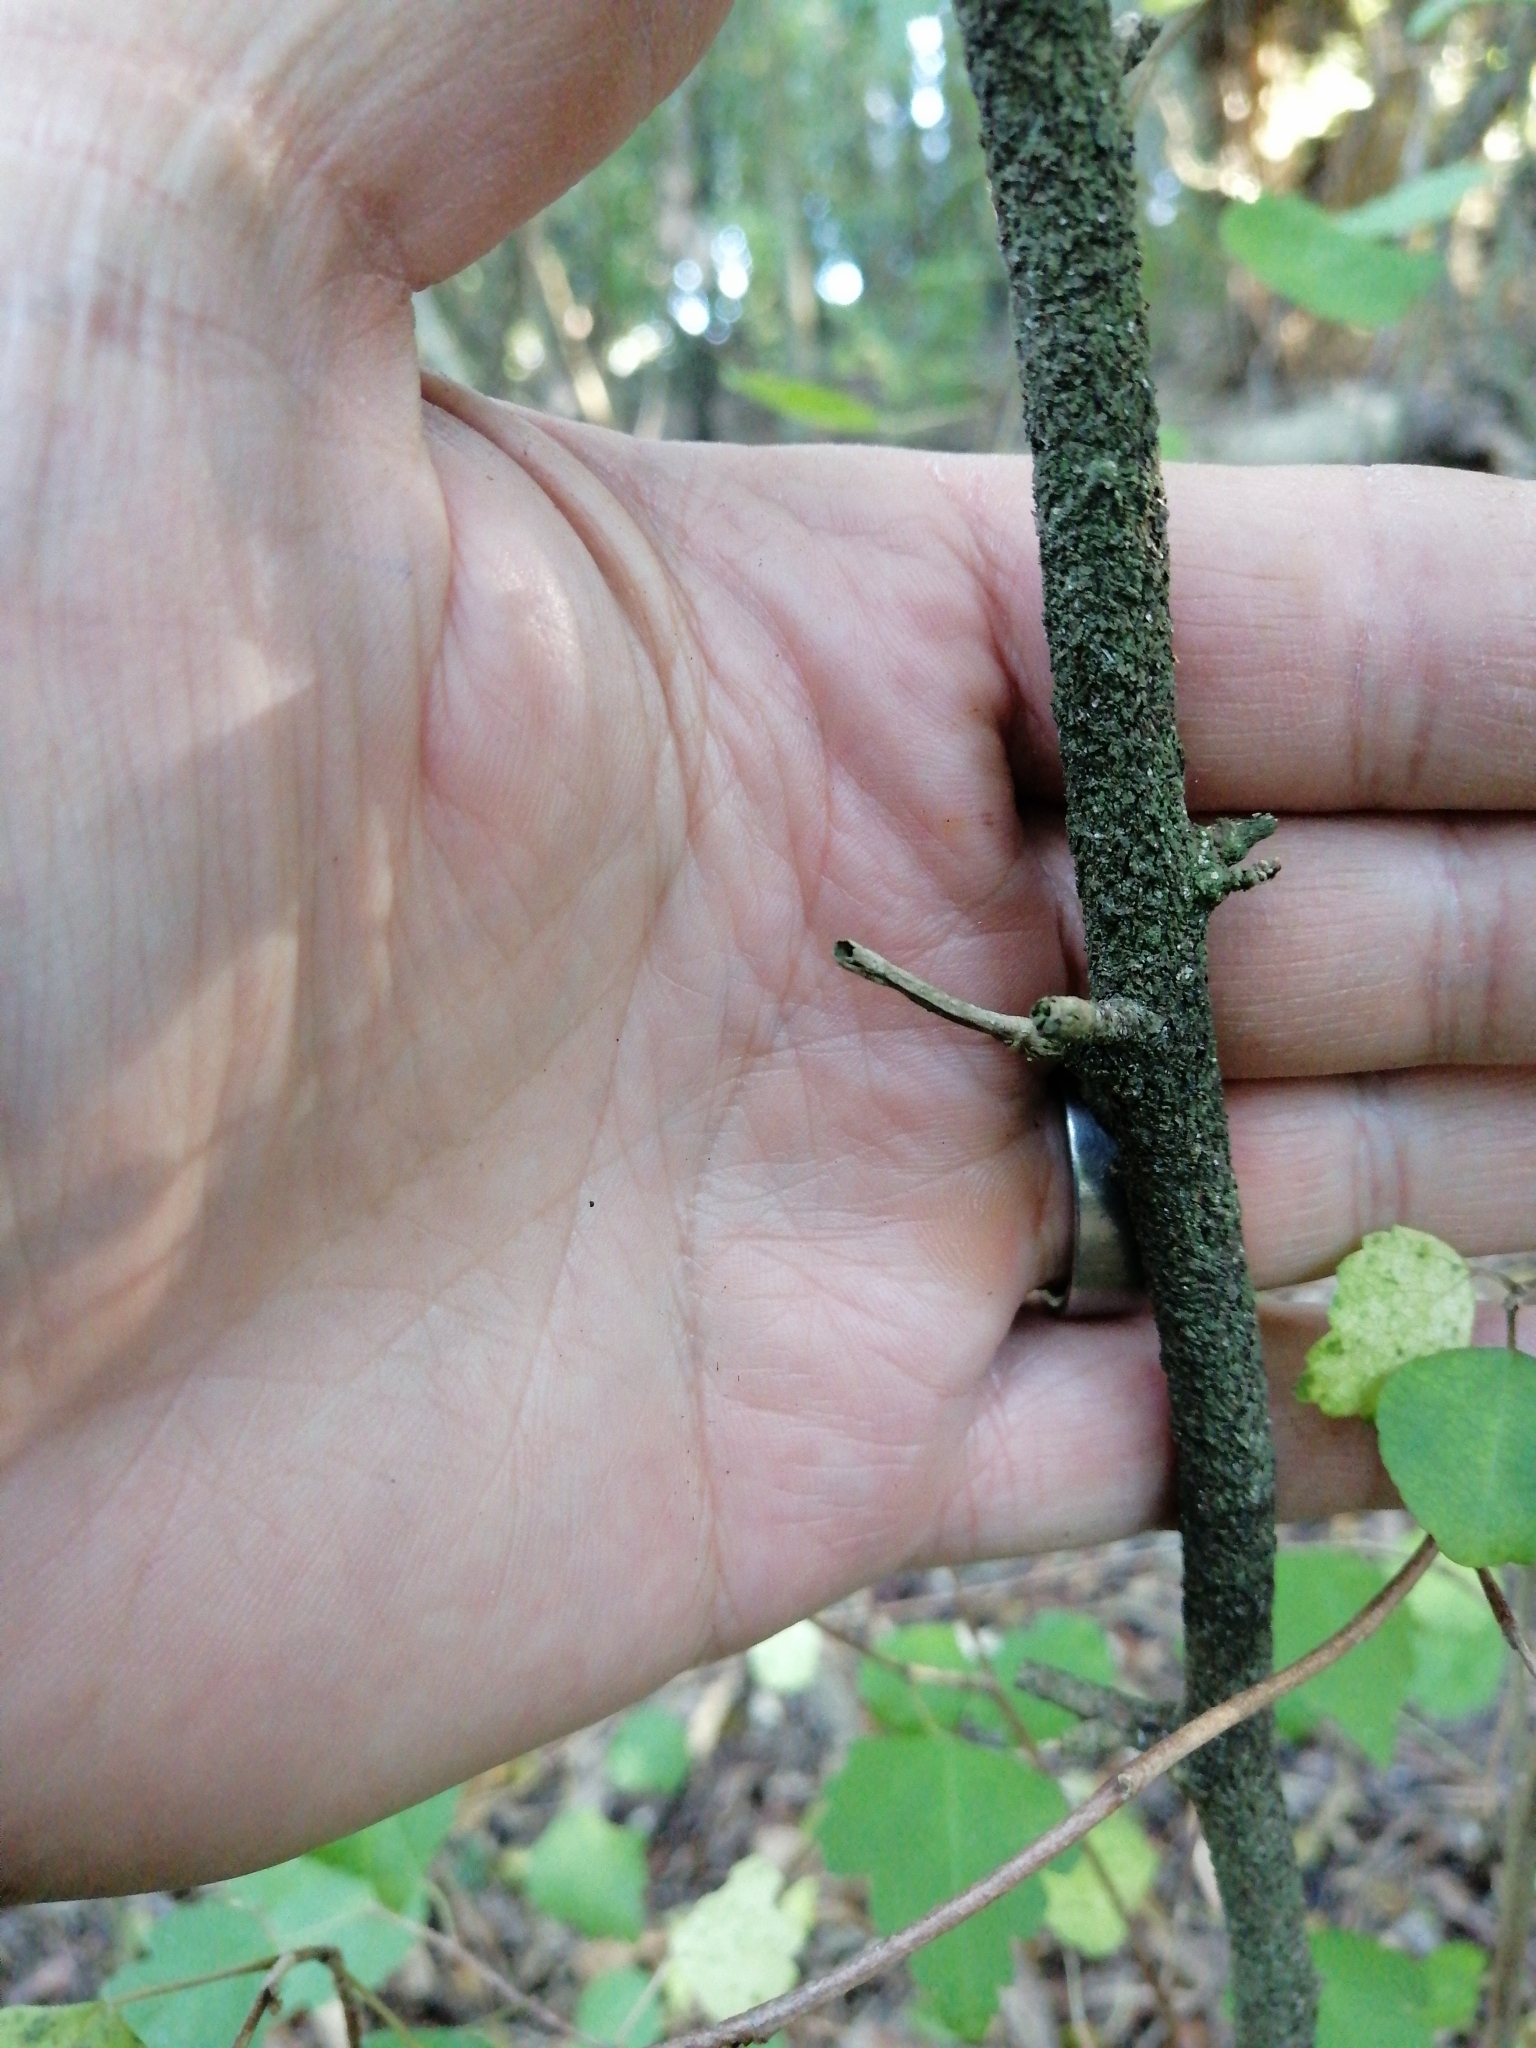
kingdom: Plantae
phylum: Tracheophyta
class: Magnoliopsida
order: Malvales
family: Malvaceae
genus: Plagianthus
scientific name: Plagianthus regius
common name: Manatu
